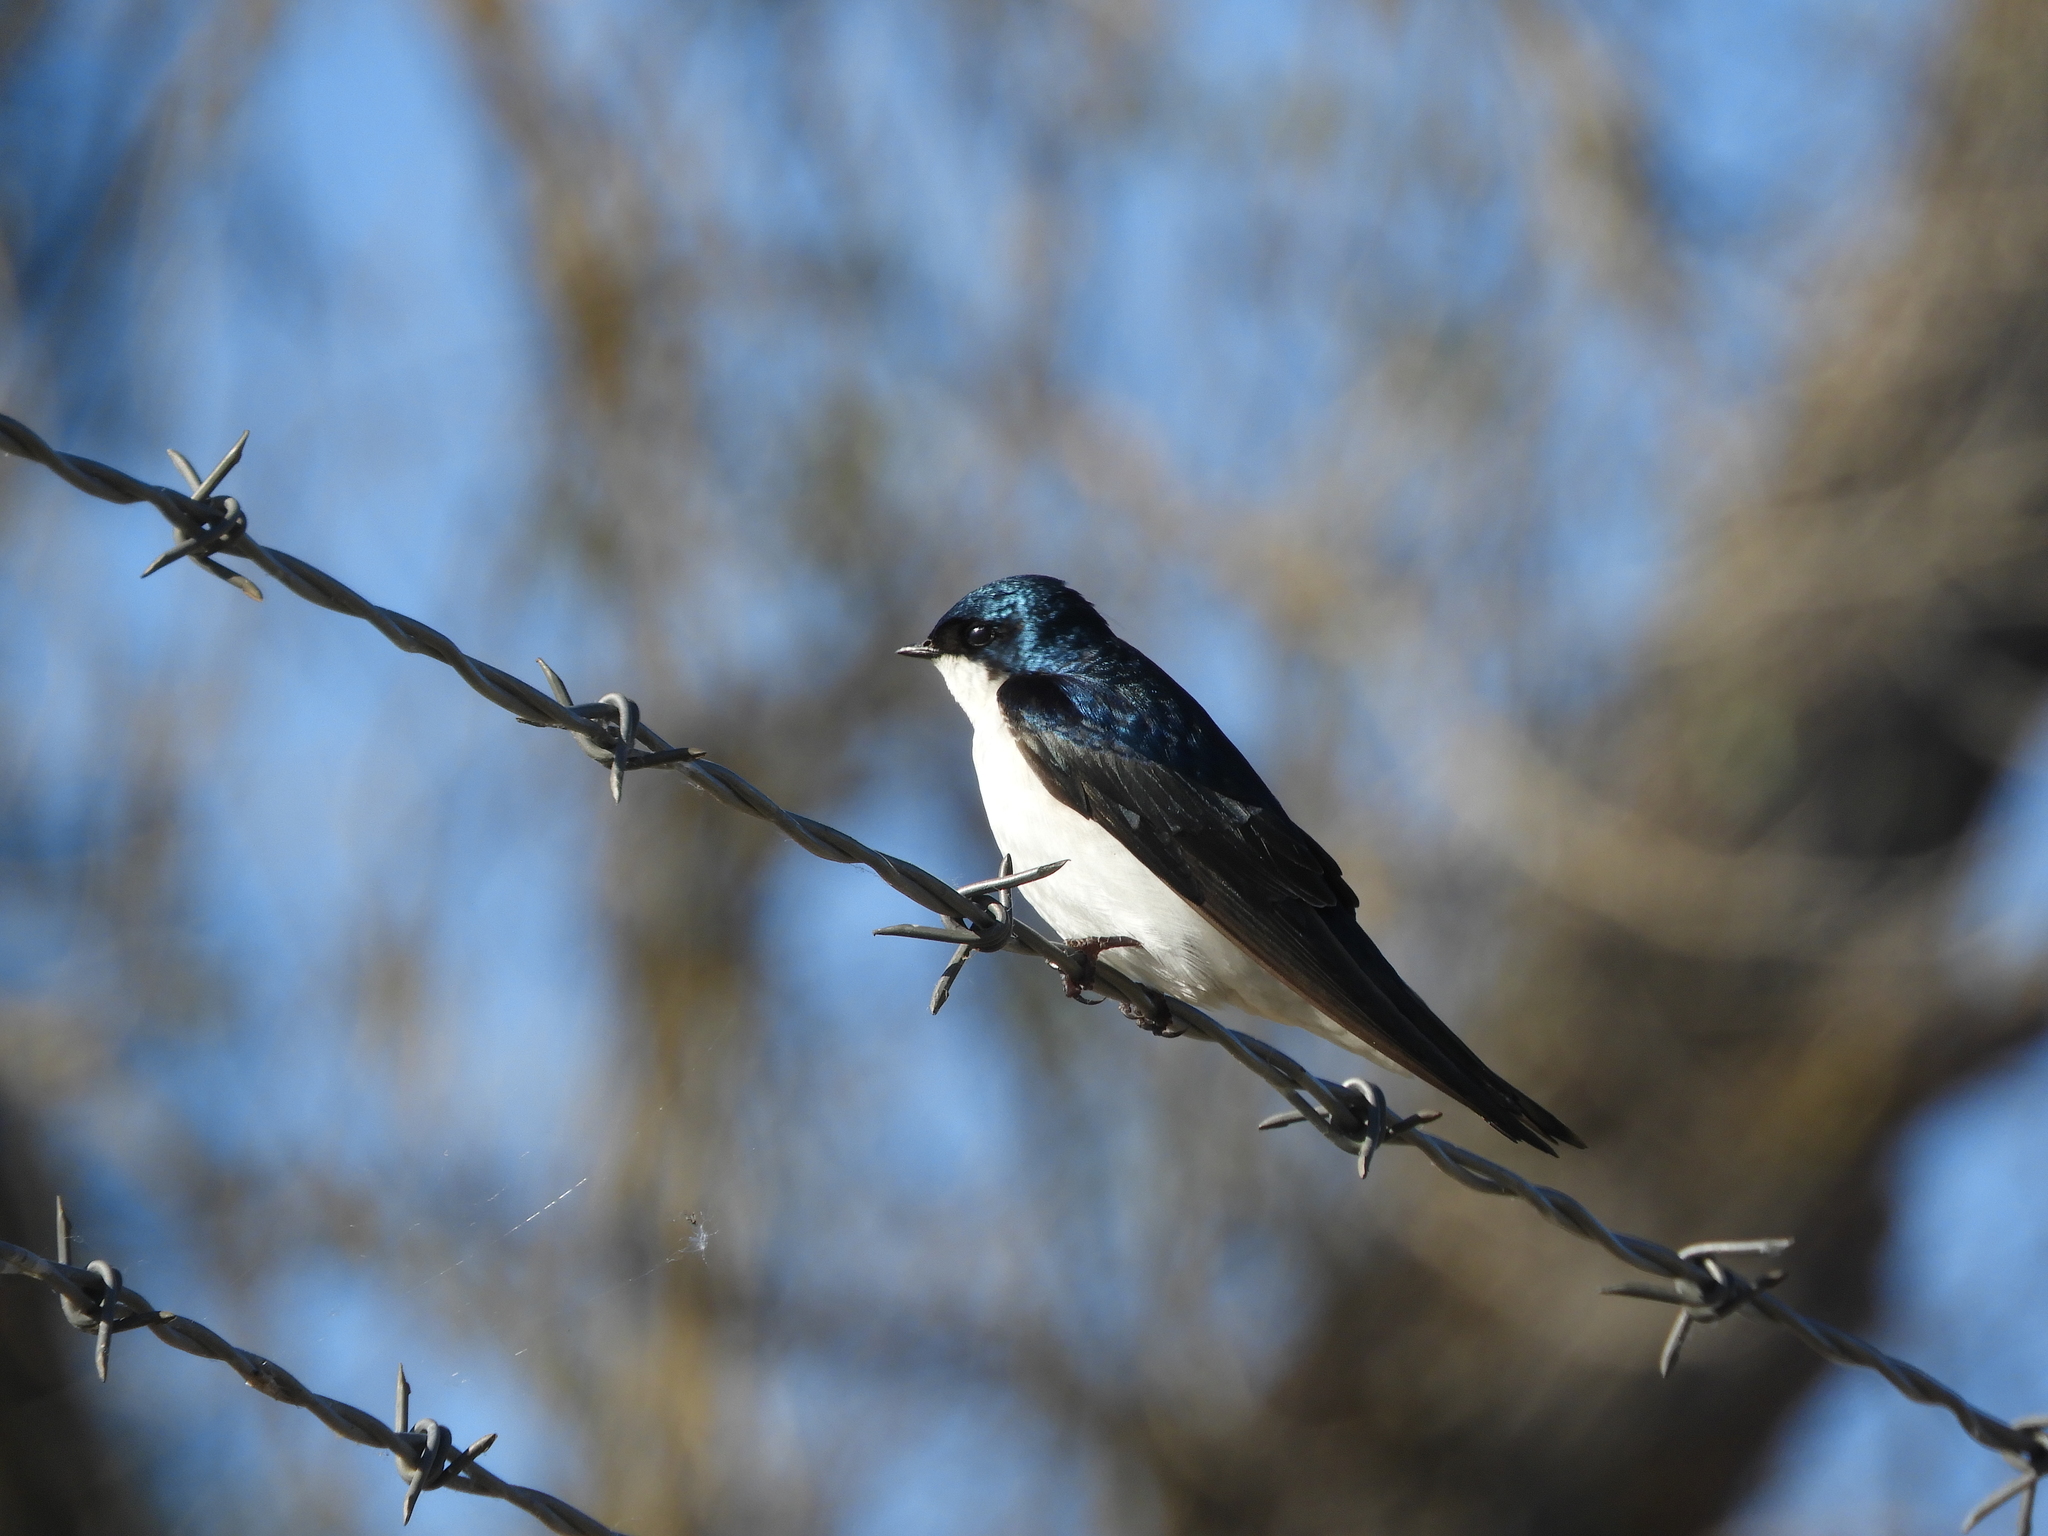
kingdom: Animalia
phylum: Chordata
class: Aves
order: Passeriformes
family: Hirundinidae
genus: Tachycineta
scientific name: Tachycineta bicolor
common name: Tree swallow
